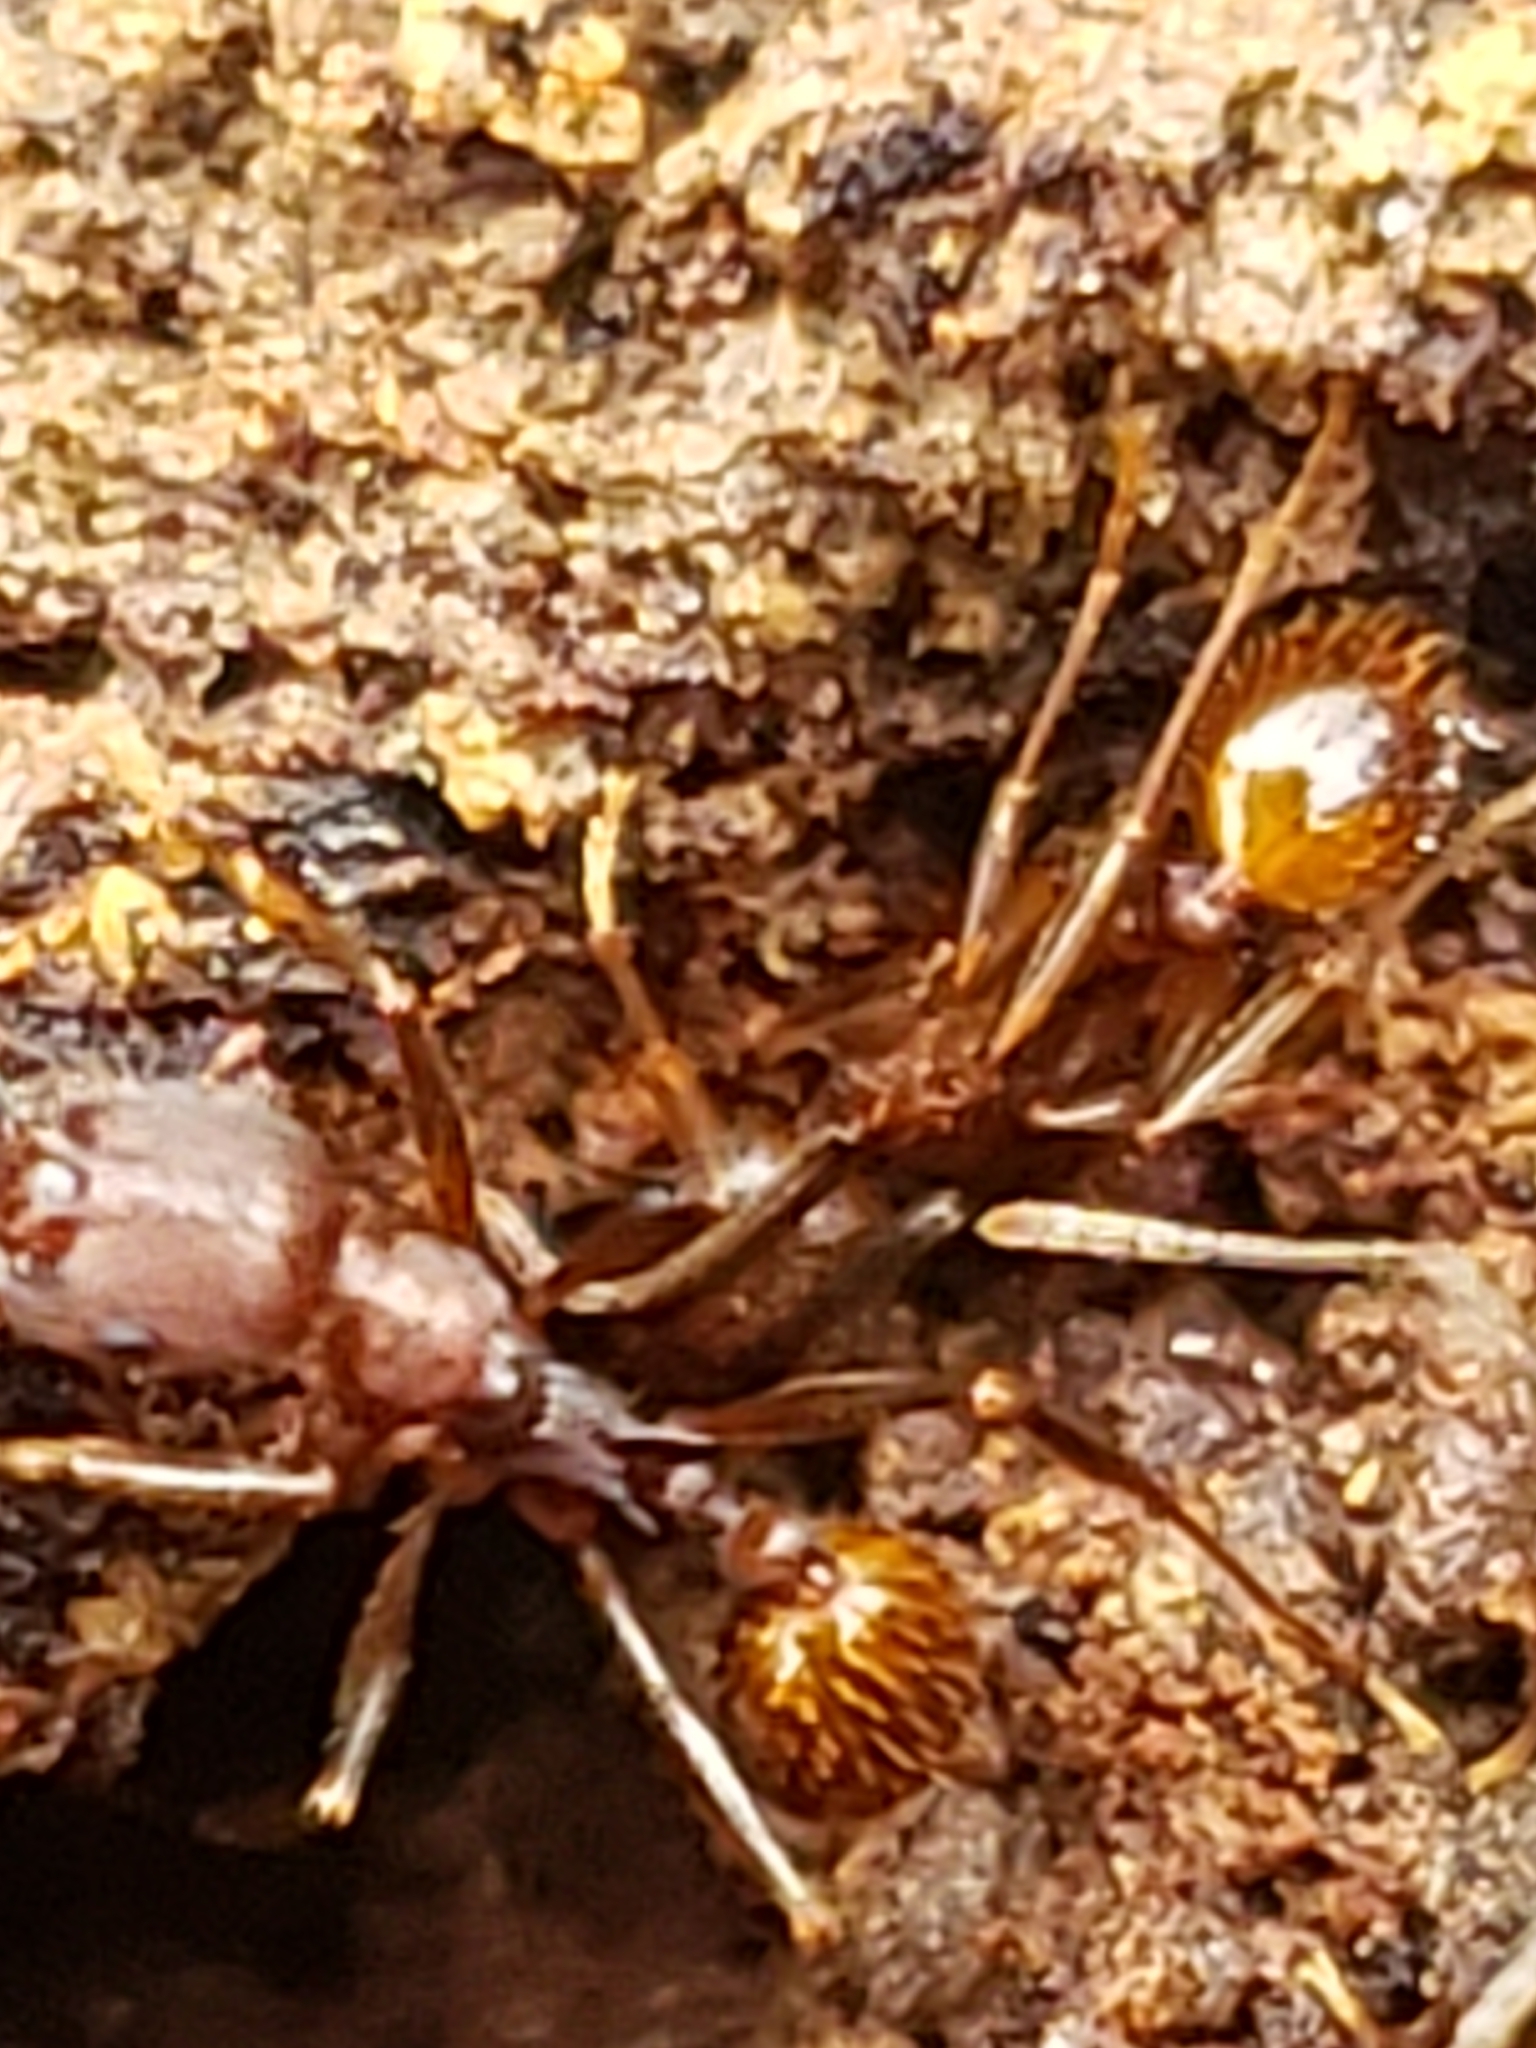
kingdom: Animalia
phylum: Arthropoda
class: Insecta
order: Hymenoptera
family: Formicidae
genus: Aphaenogaster
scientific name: Aphaenogaster fulva
